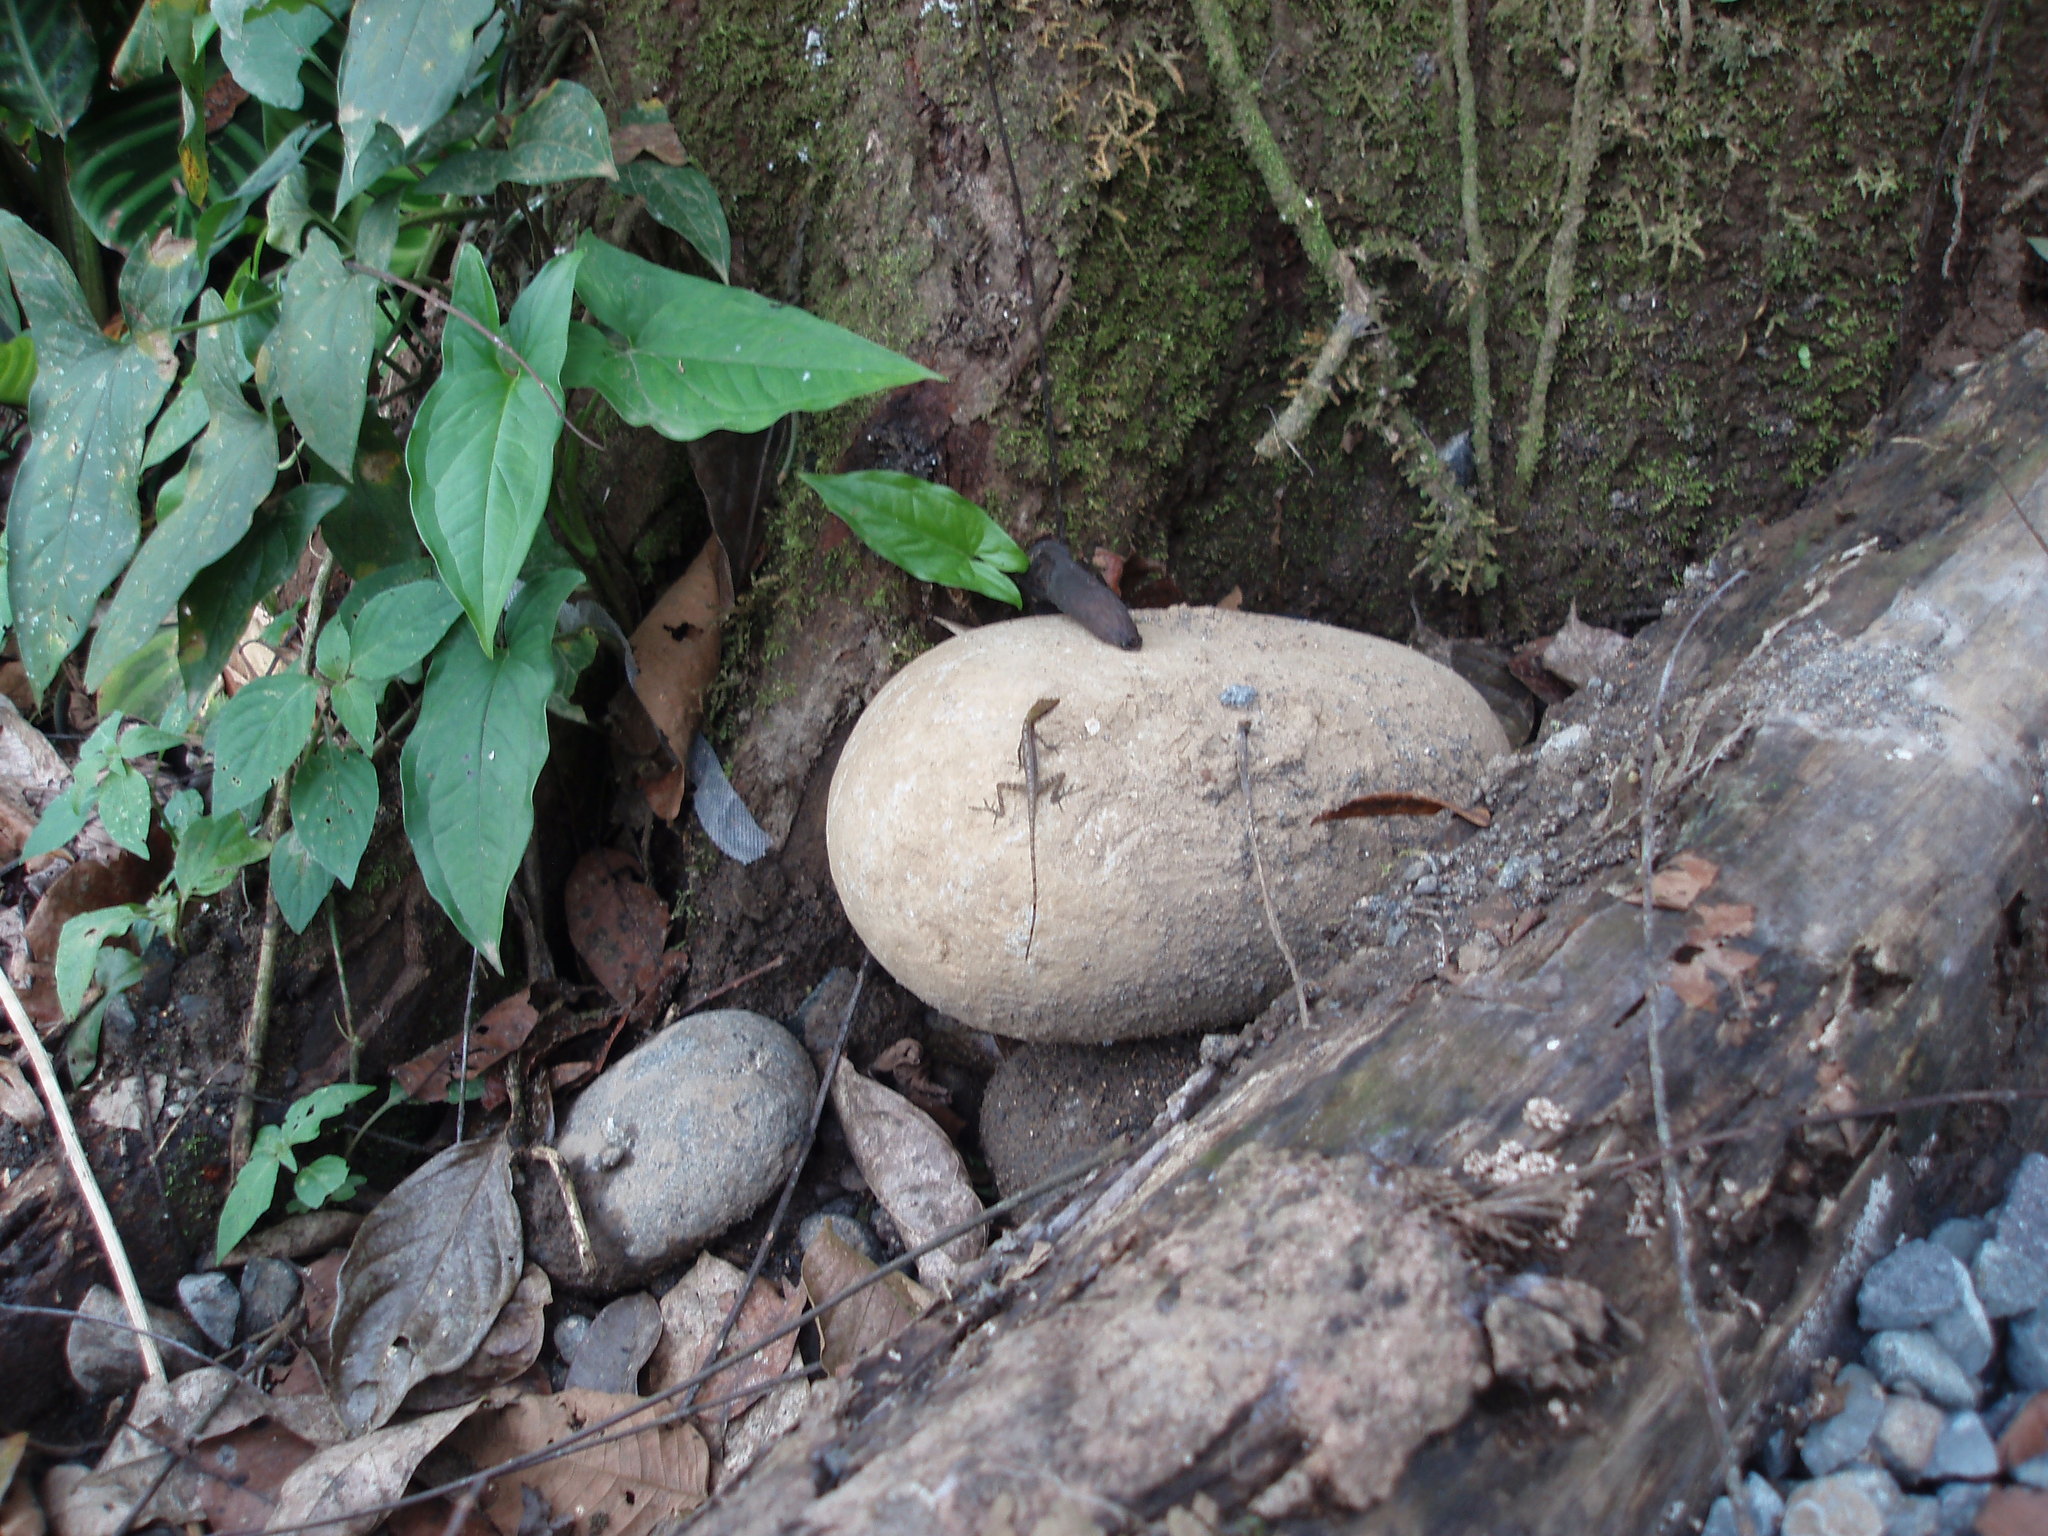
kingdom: Animalia
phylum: Chordata
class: Squamata
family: Dactyloidae
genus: Anolis
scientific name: Anolis limifrons
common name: Border anole
